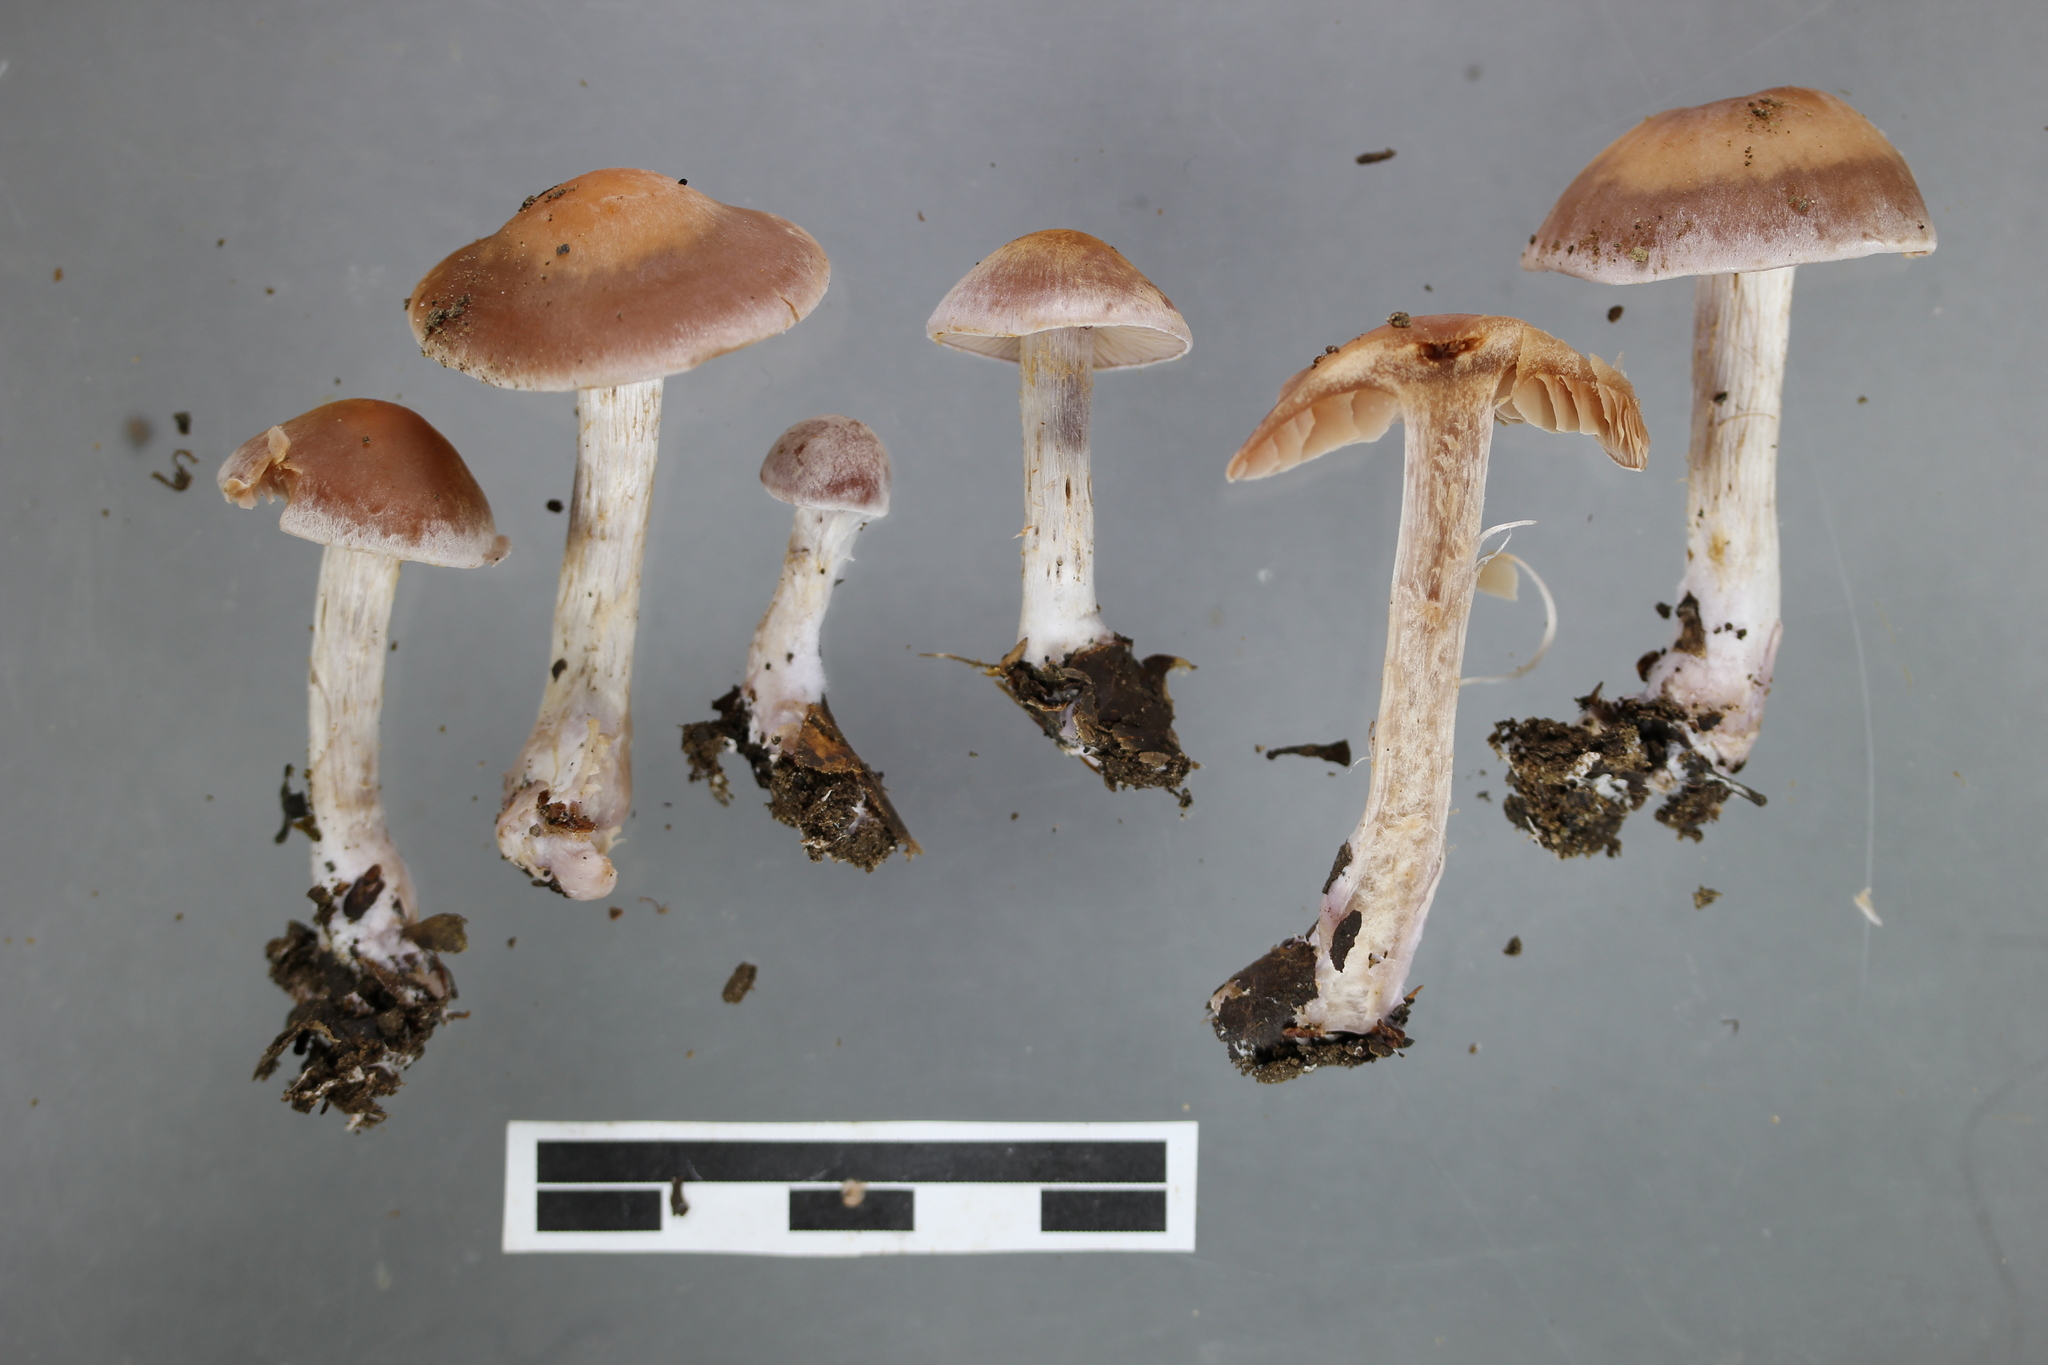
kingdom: Fungi
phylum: Basidiomycota
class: Agaricomycetes
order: Agaricales
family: Cortinariaceae
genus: Cortinarius
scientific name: Cortinarius saturniorum
